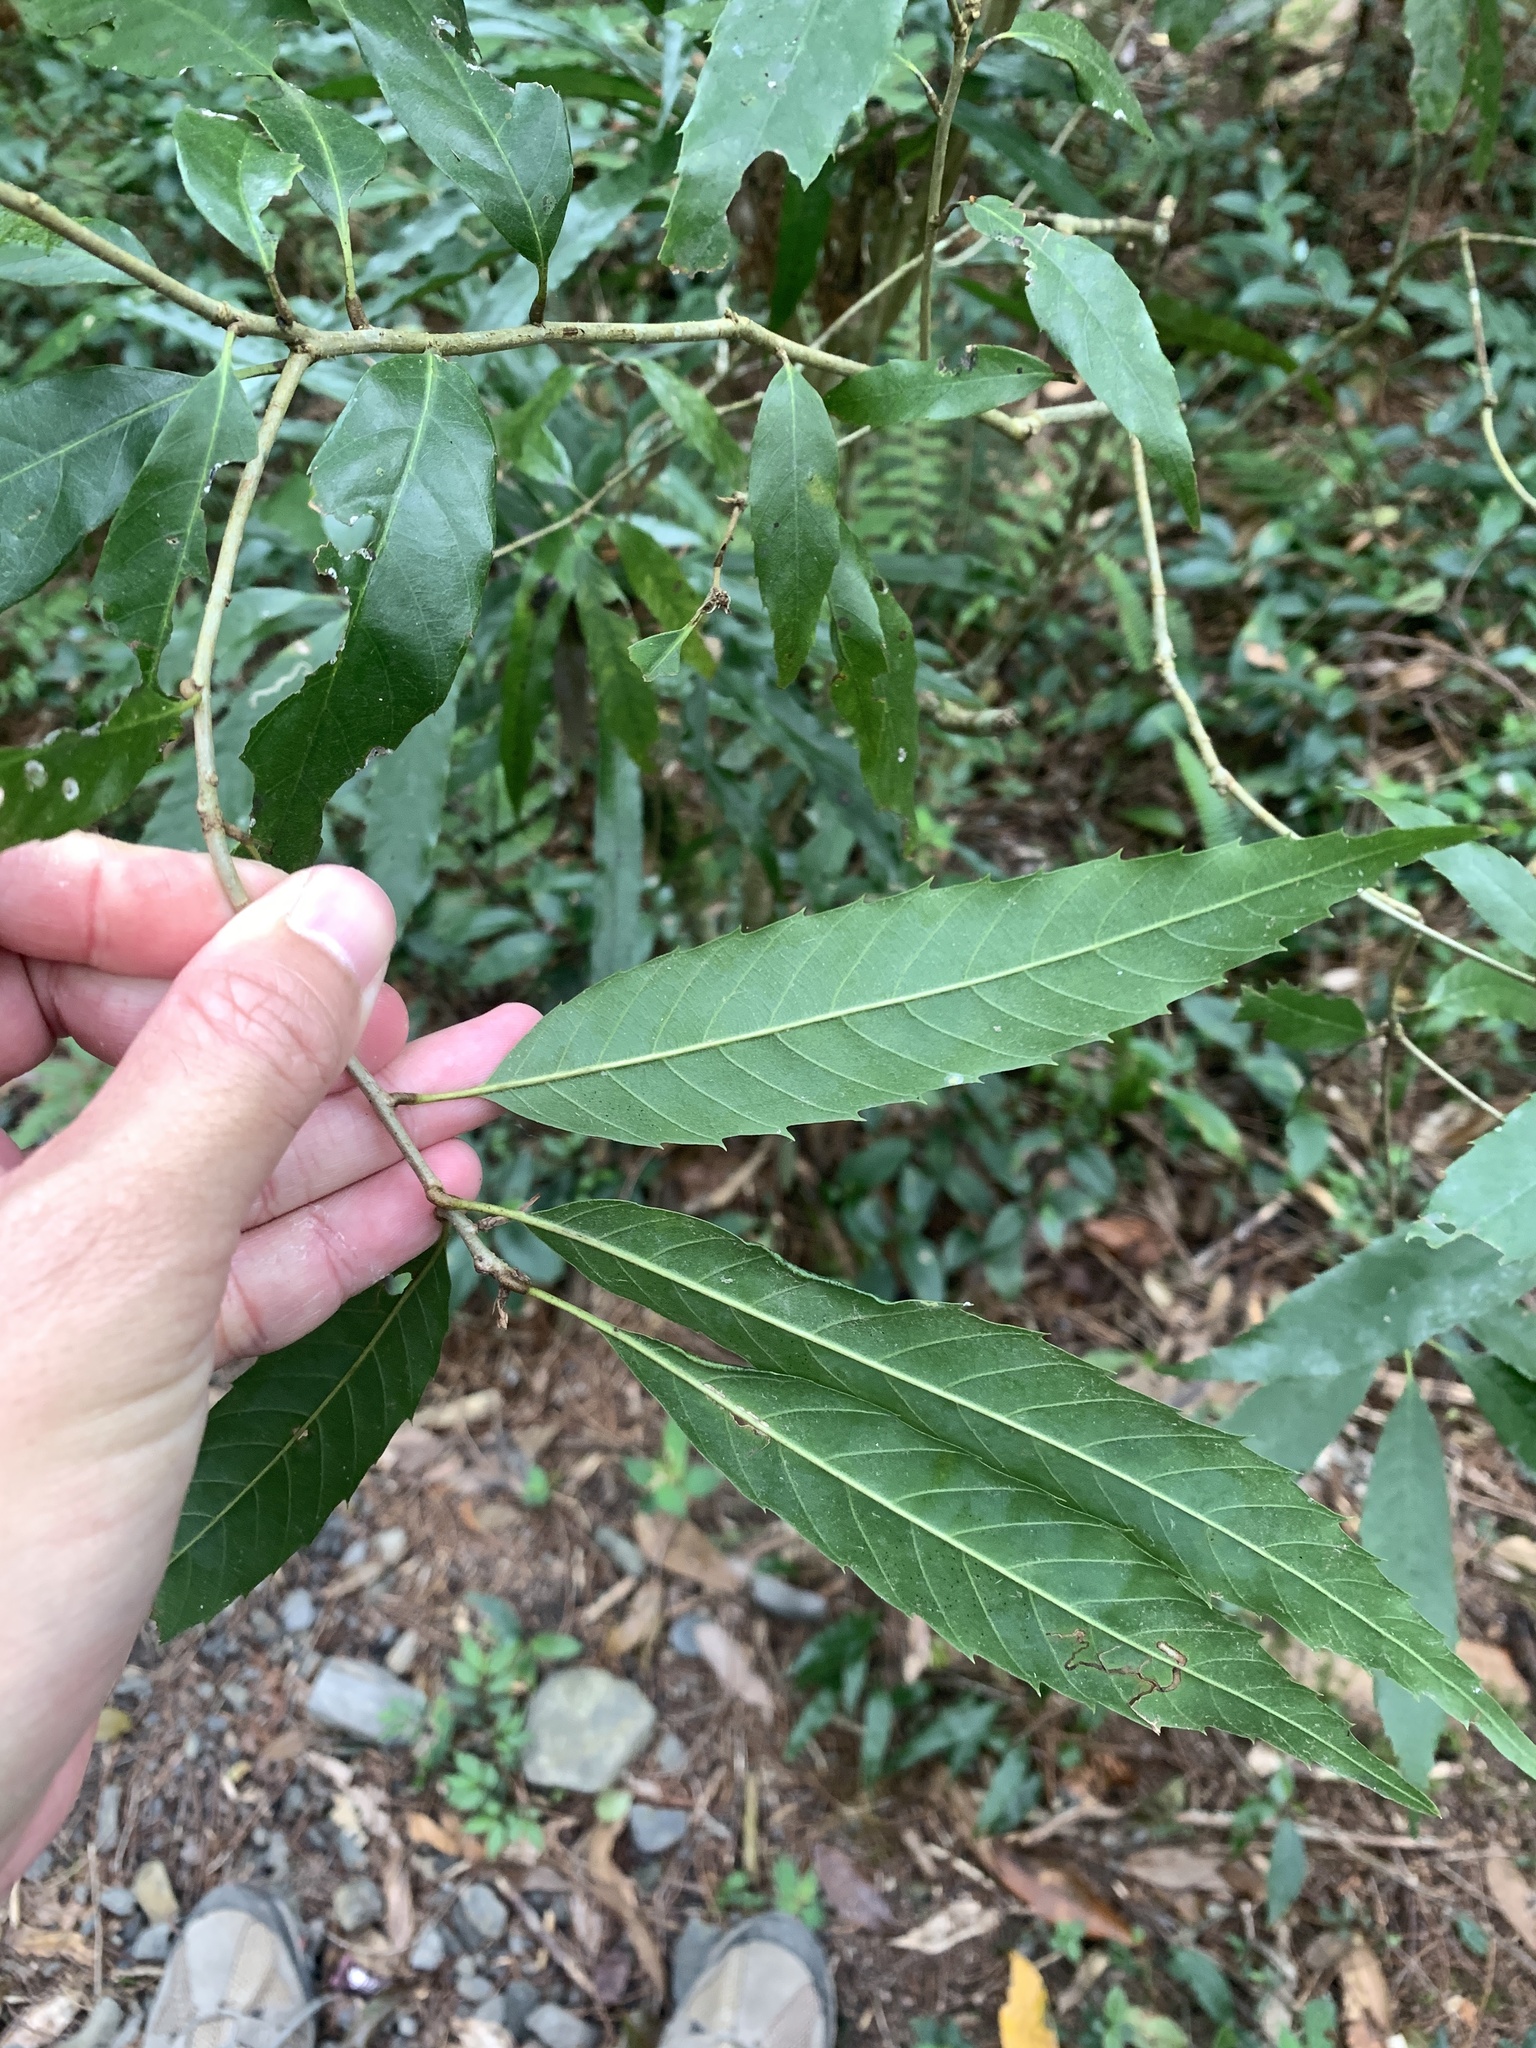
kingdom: Plantae
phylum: Tracheophyta
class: Magnoliopsida
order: Fagales
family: Fagaceae
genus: Quercus
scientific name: Quercus stenophylloides
